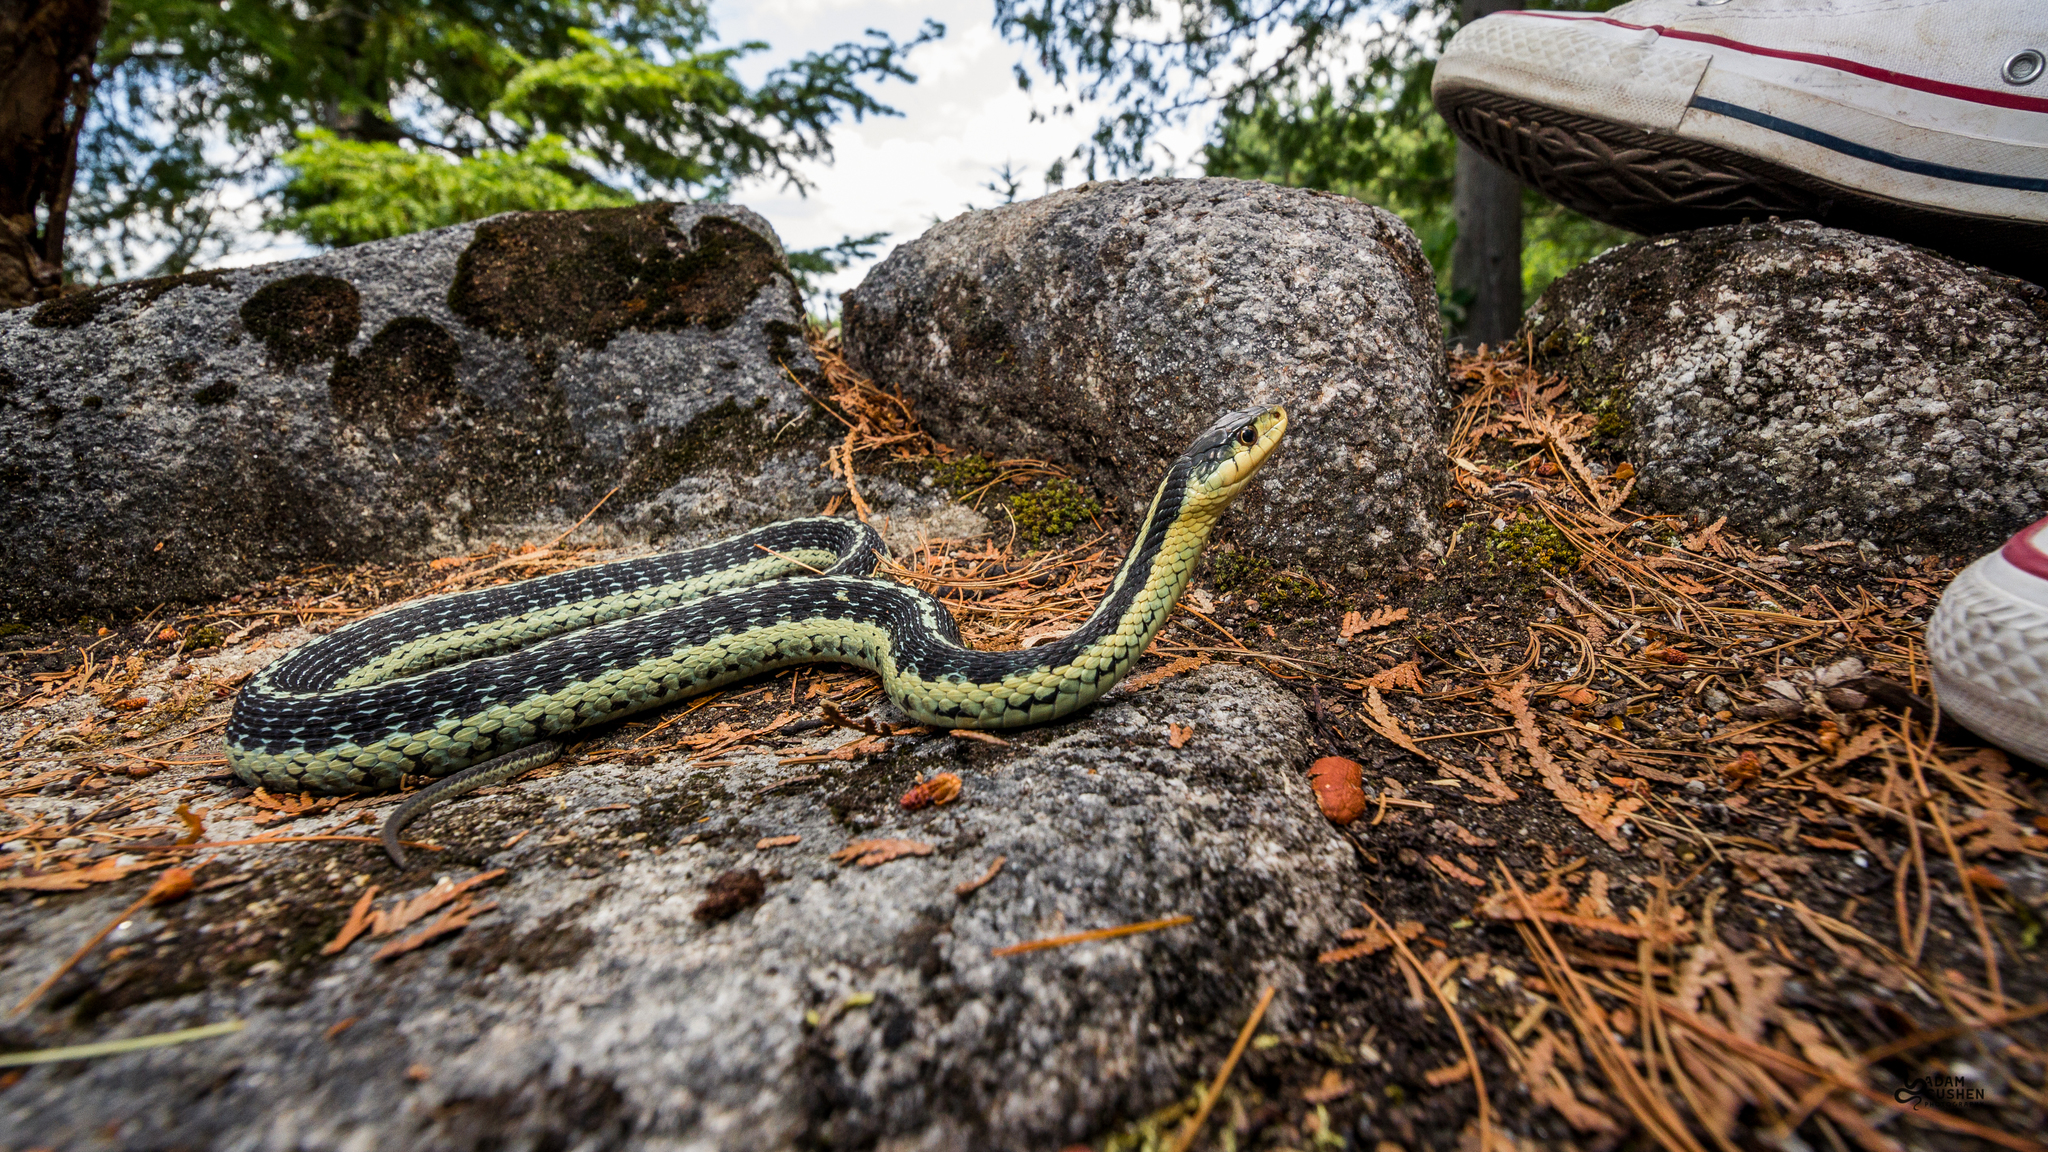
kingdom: Animalia
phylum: Chordata
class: Squamata
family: Colubridae
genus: Thamnophis
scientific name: Thamnophis sirtalis
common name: Common garter snake
